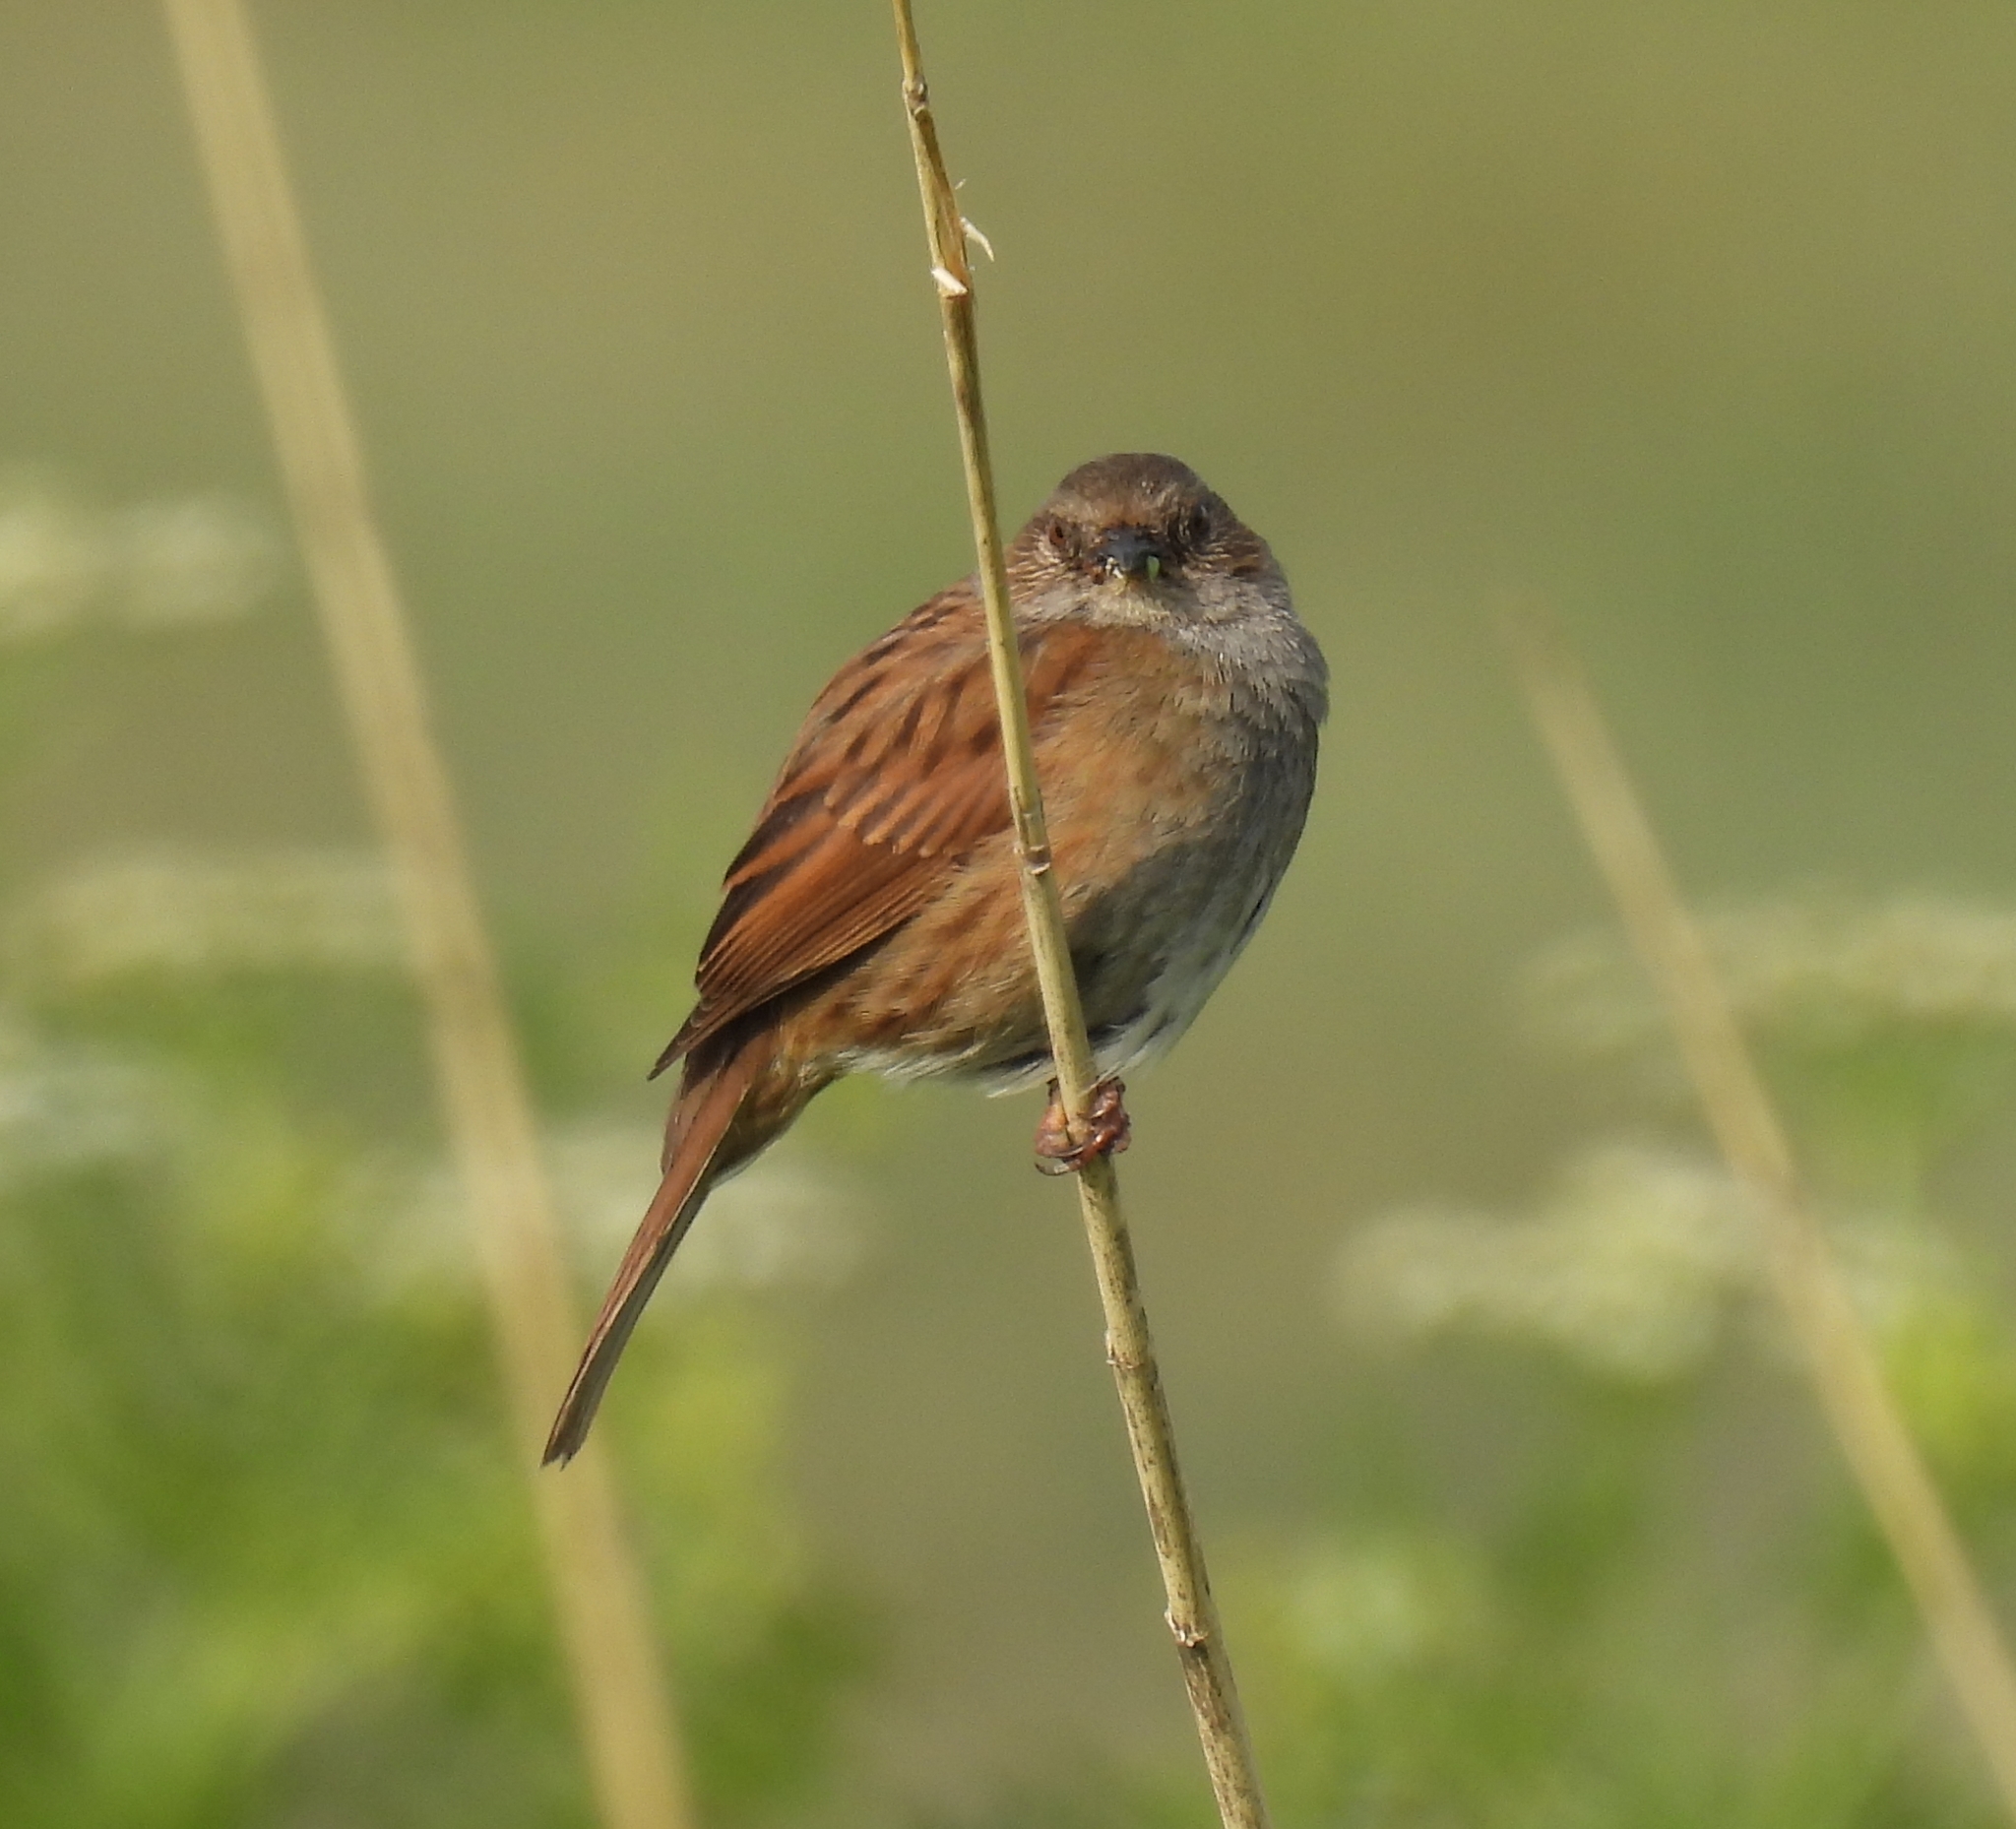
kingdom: Animalia
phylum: Chordata
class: Aves
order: Passeriformes
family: Prunellidae
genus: Prunella
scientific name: Prunella modularis
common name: Dunnock
